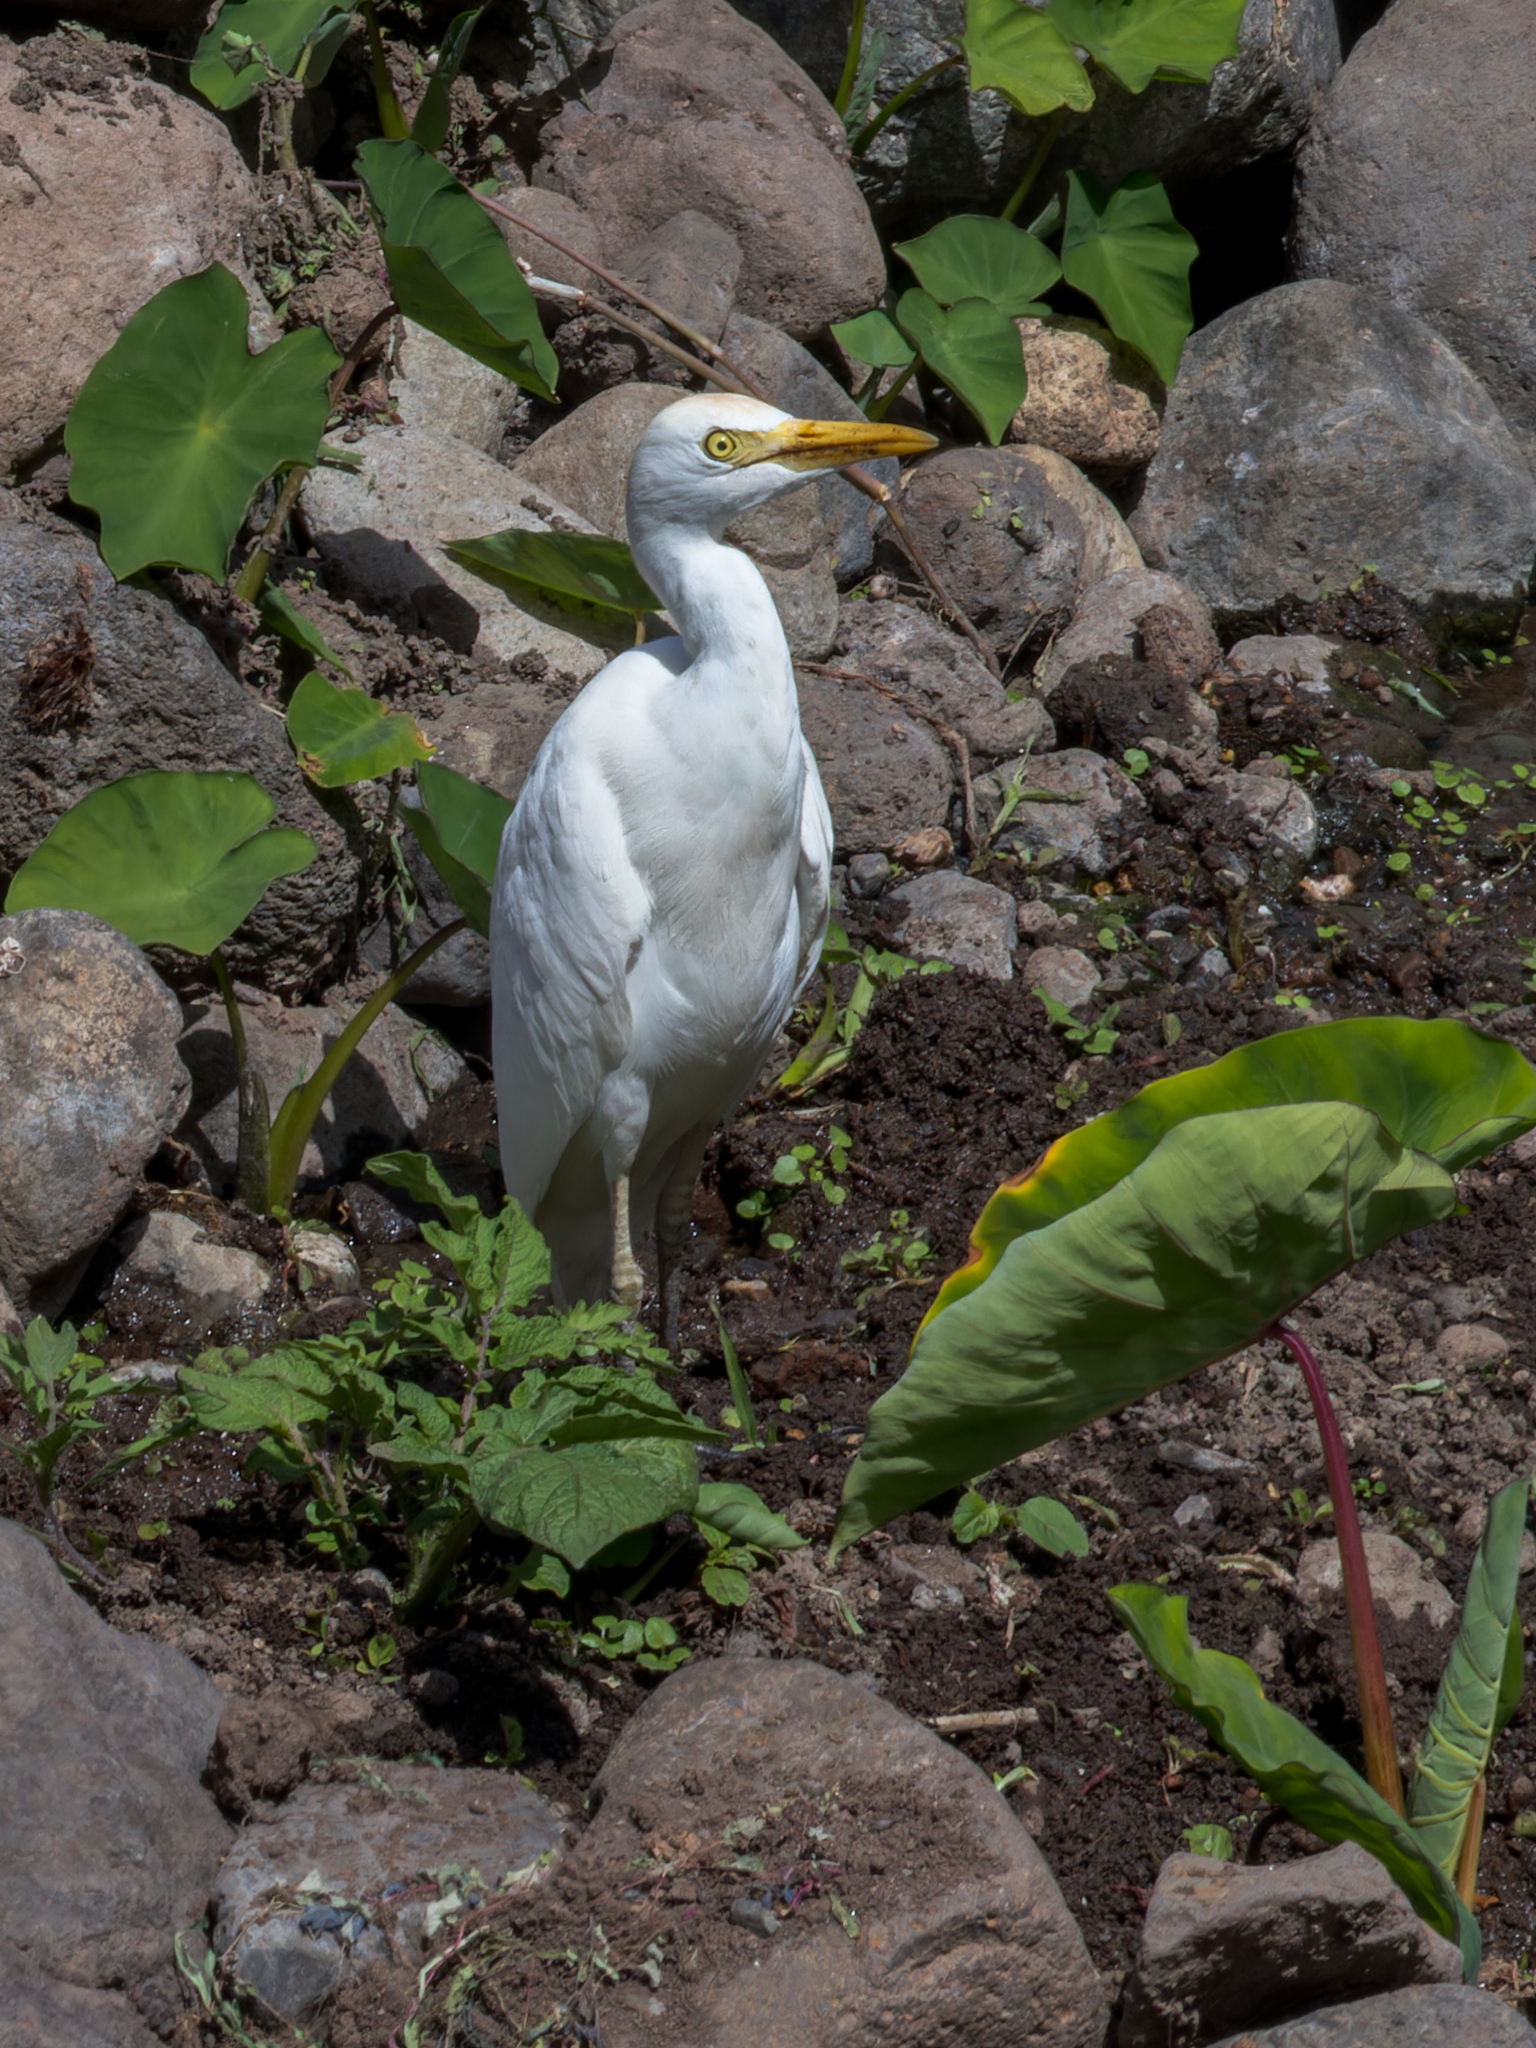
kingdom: Animalia
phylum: Chordata
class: Aves
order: Pelecaniformes
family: Ardeidae
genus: Bubulcus
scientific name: Bubulcus ibis
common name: Cattle egret
